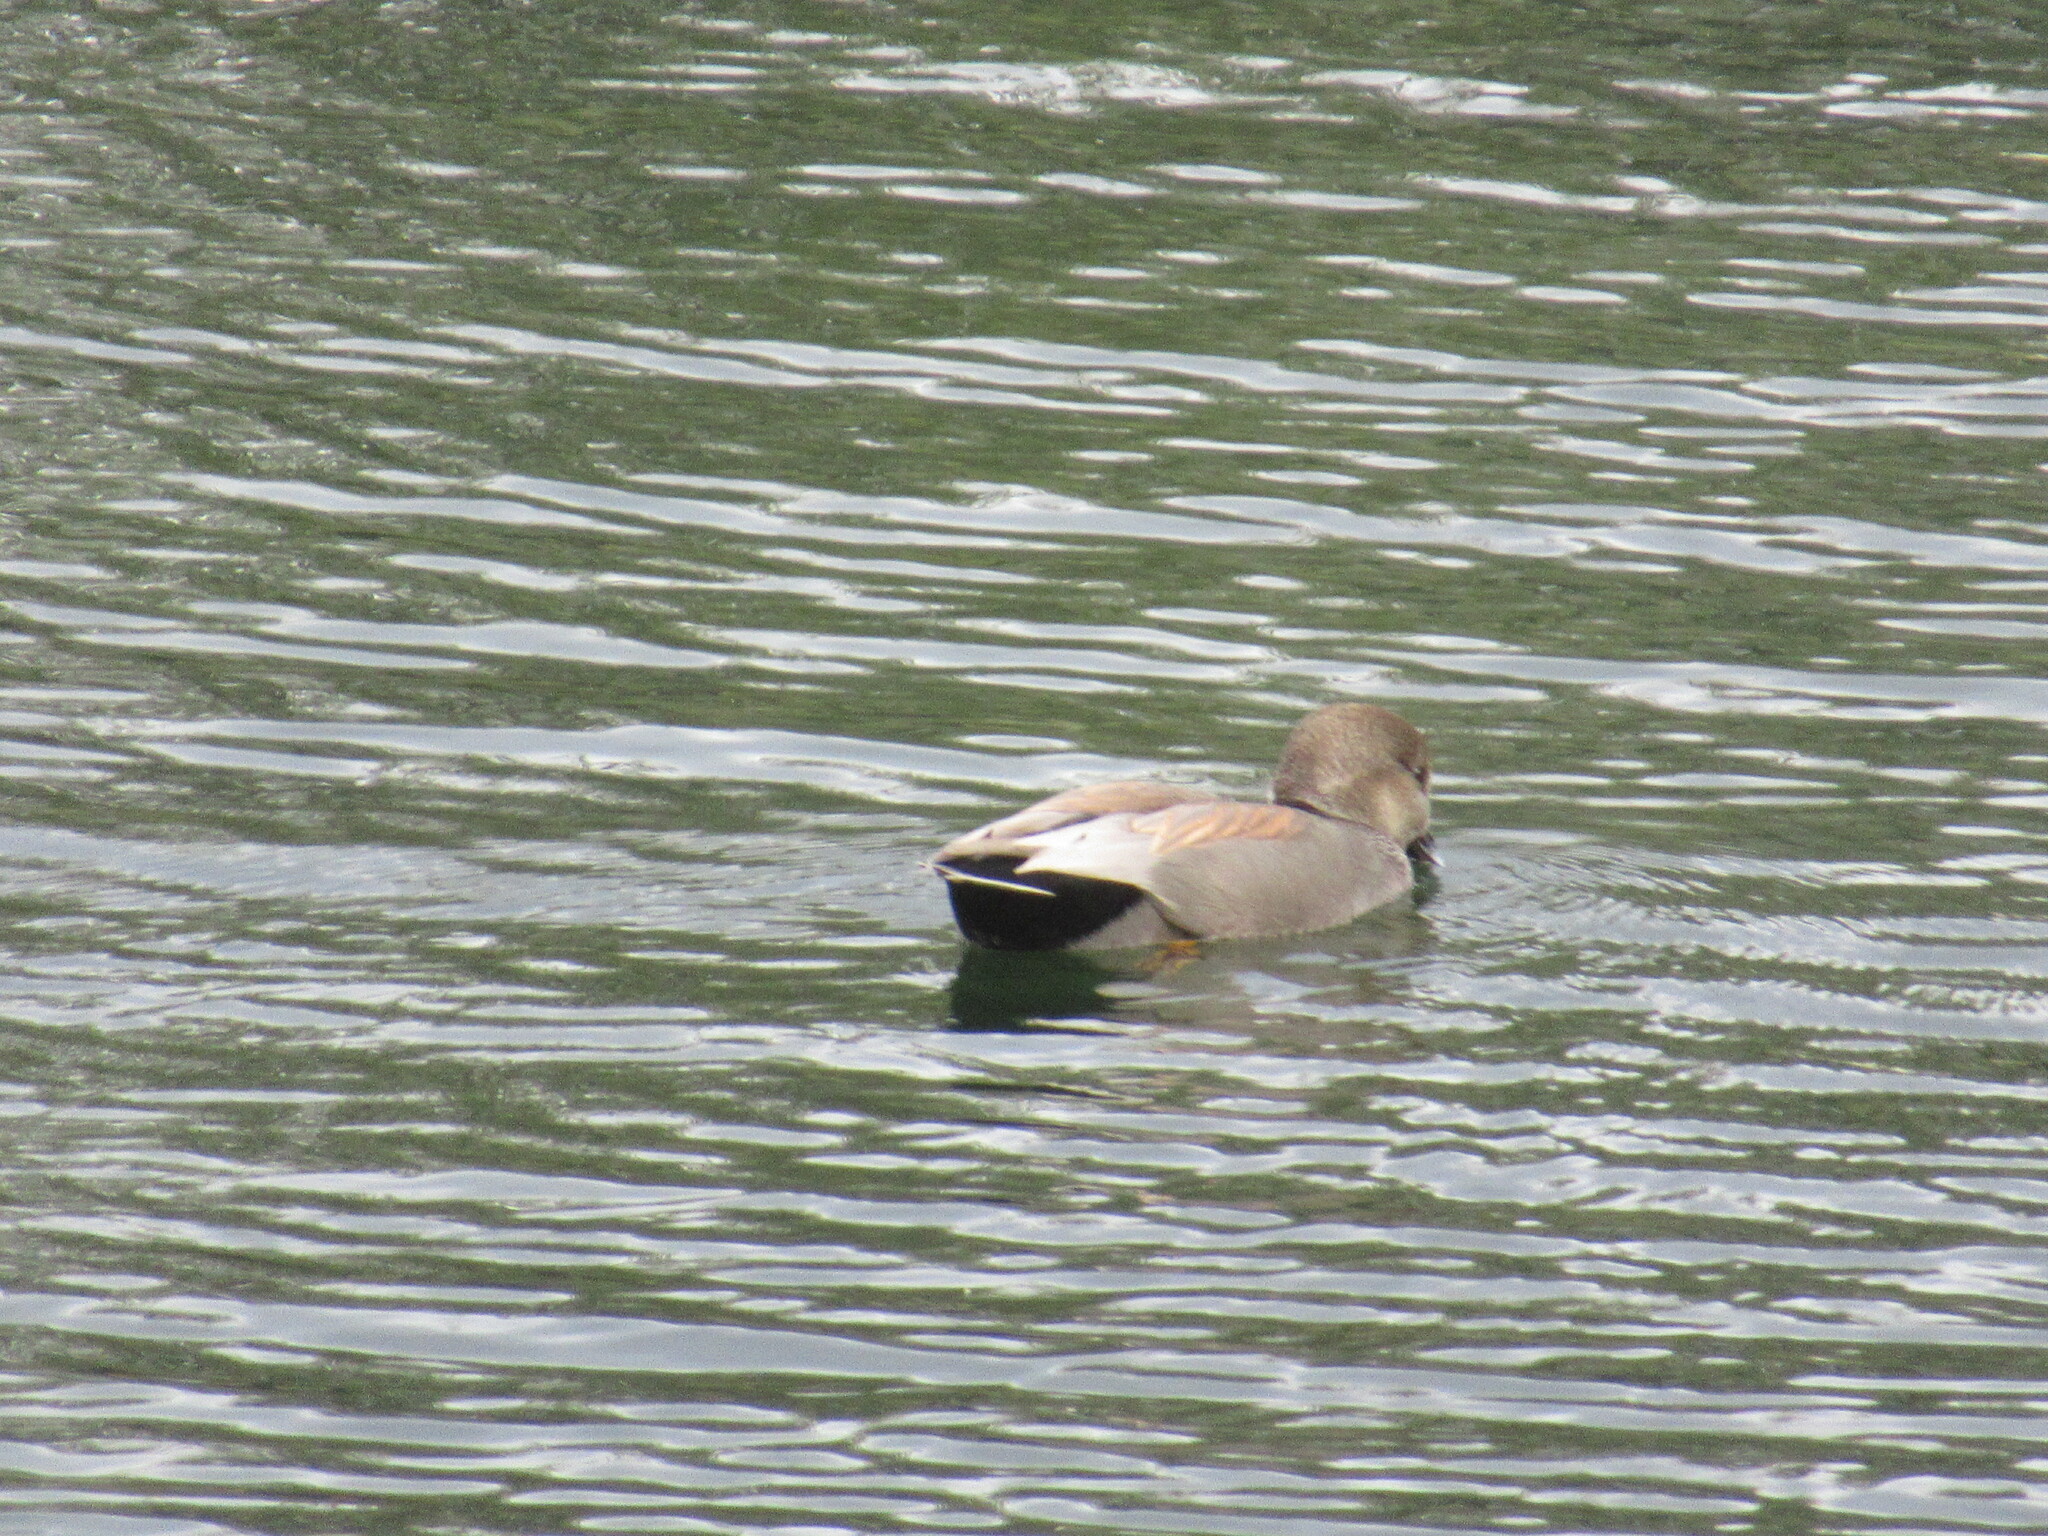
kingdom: Animalia
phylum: Chordata
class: Aves
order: Anseriformes
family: Anatidae
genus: Mareca
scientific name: Mareca strepera
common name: Gadwall
